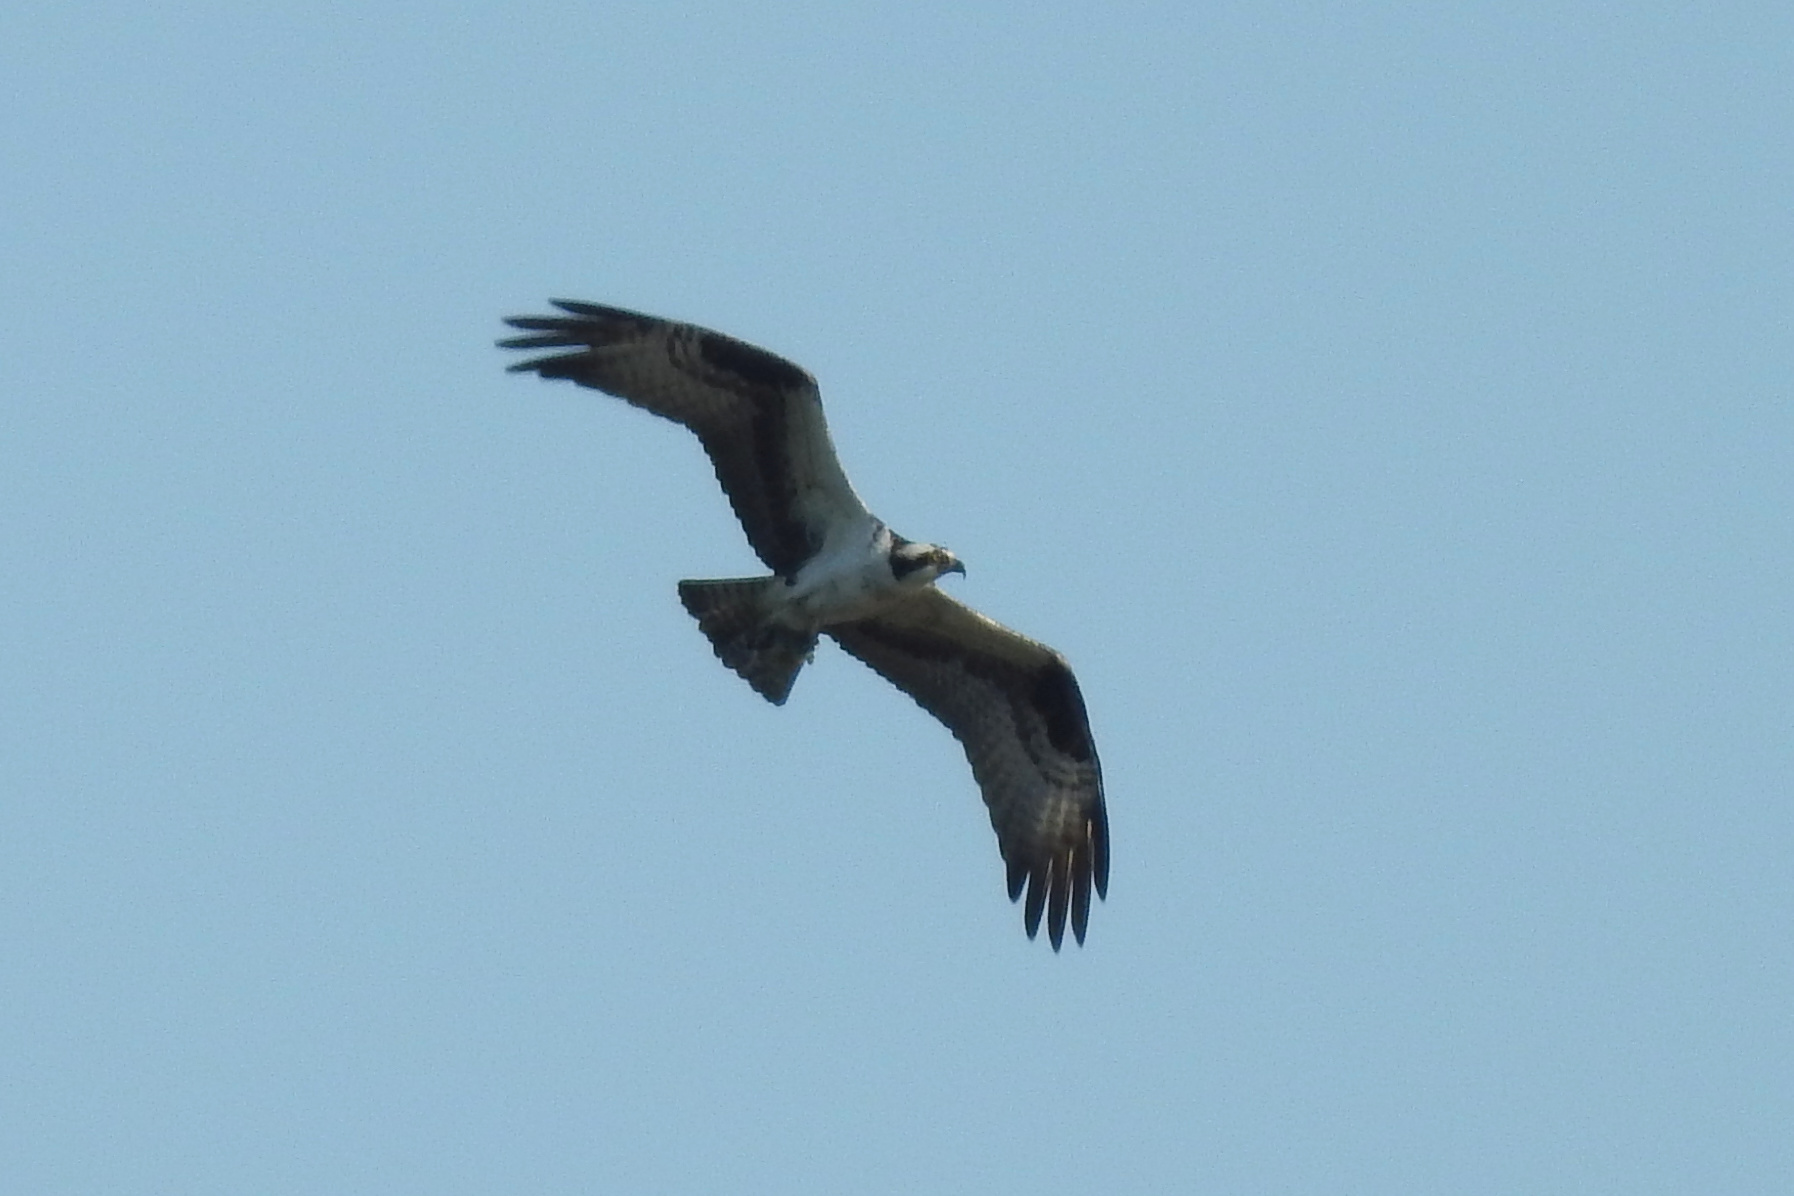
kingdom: Animalia
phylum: Chordata
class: Aves
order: Accipitriformes
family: Pandionidae
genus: Pandion
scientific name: Pandion haliaetus
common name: Osprey
